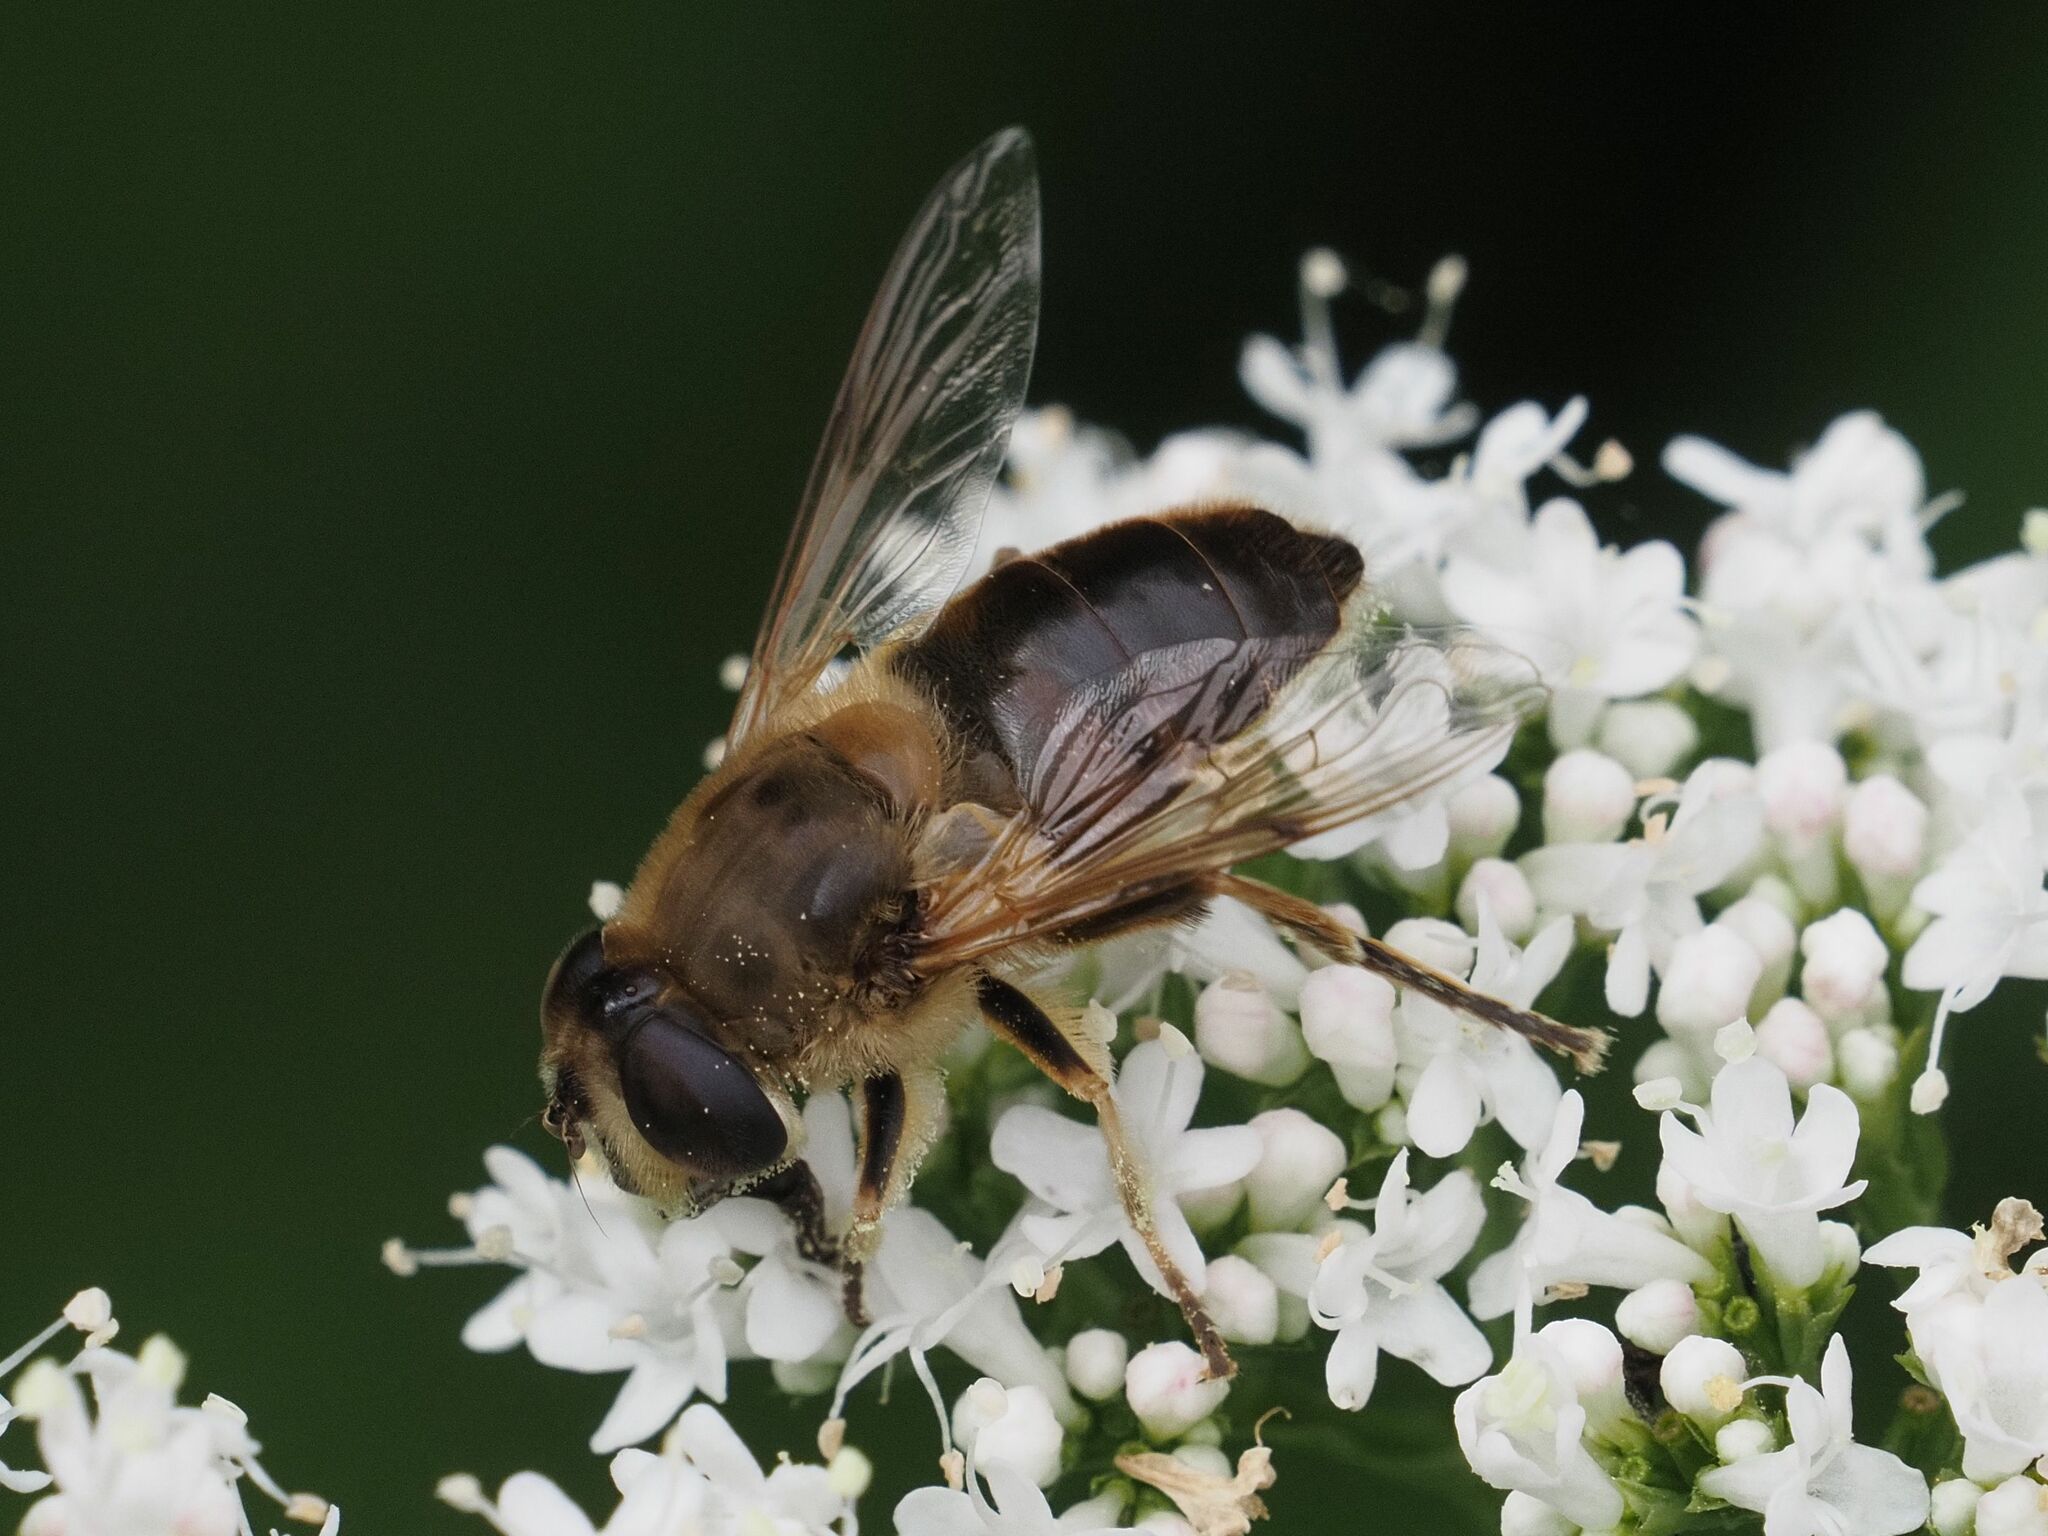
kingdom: Animalia
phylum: Arthropoda
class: Insecta
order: Diptera
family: Syrphidae
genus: Eristalis
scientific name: Eristalis tenax
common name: Drone fly
